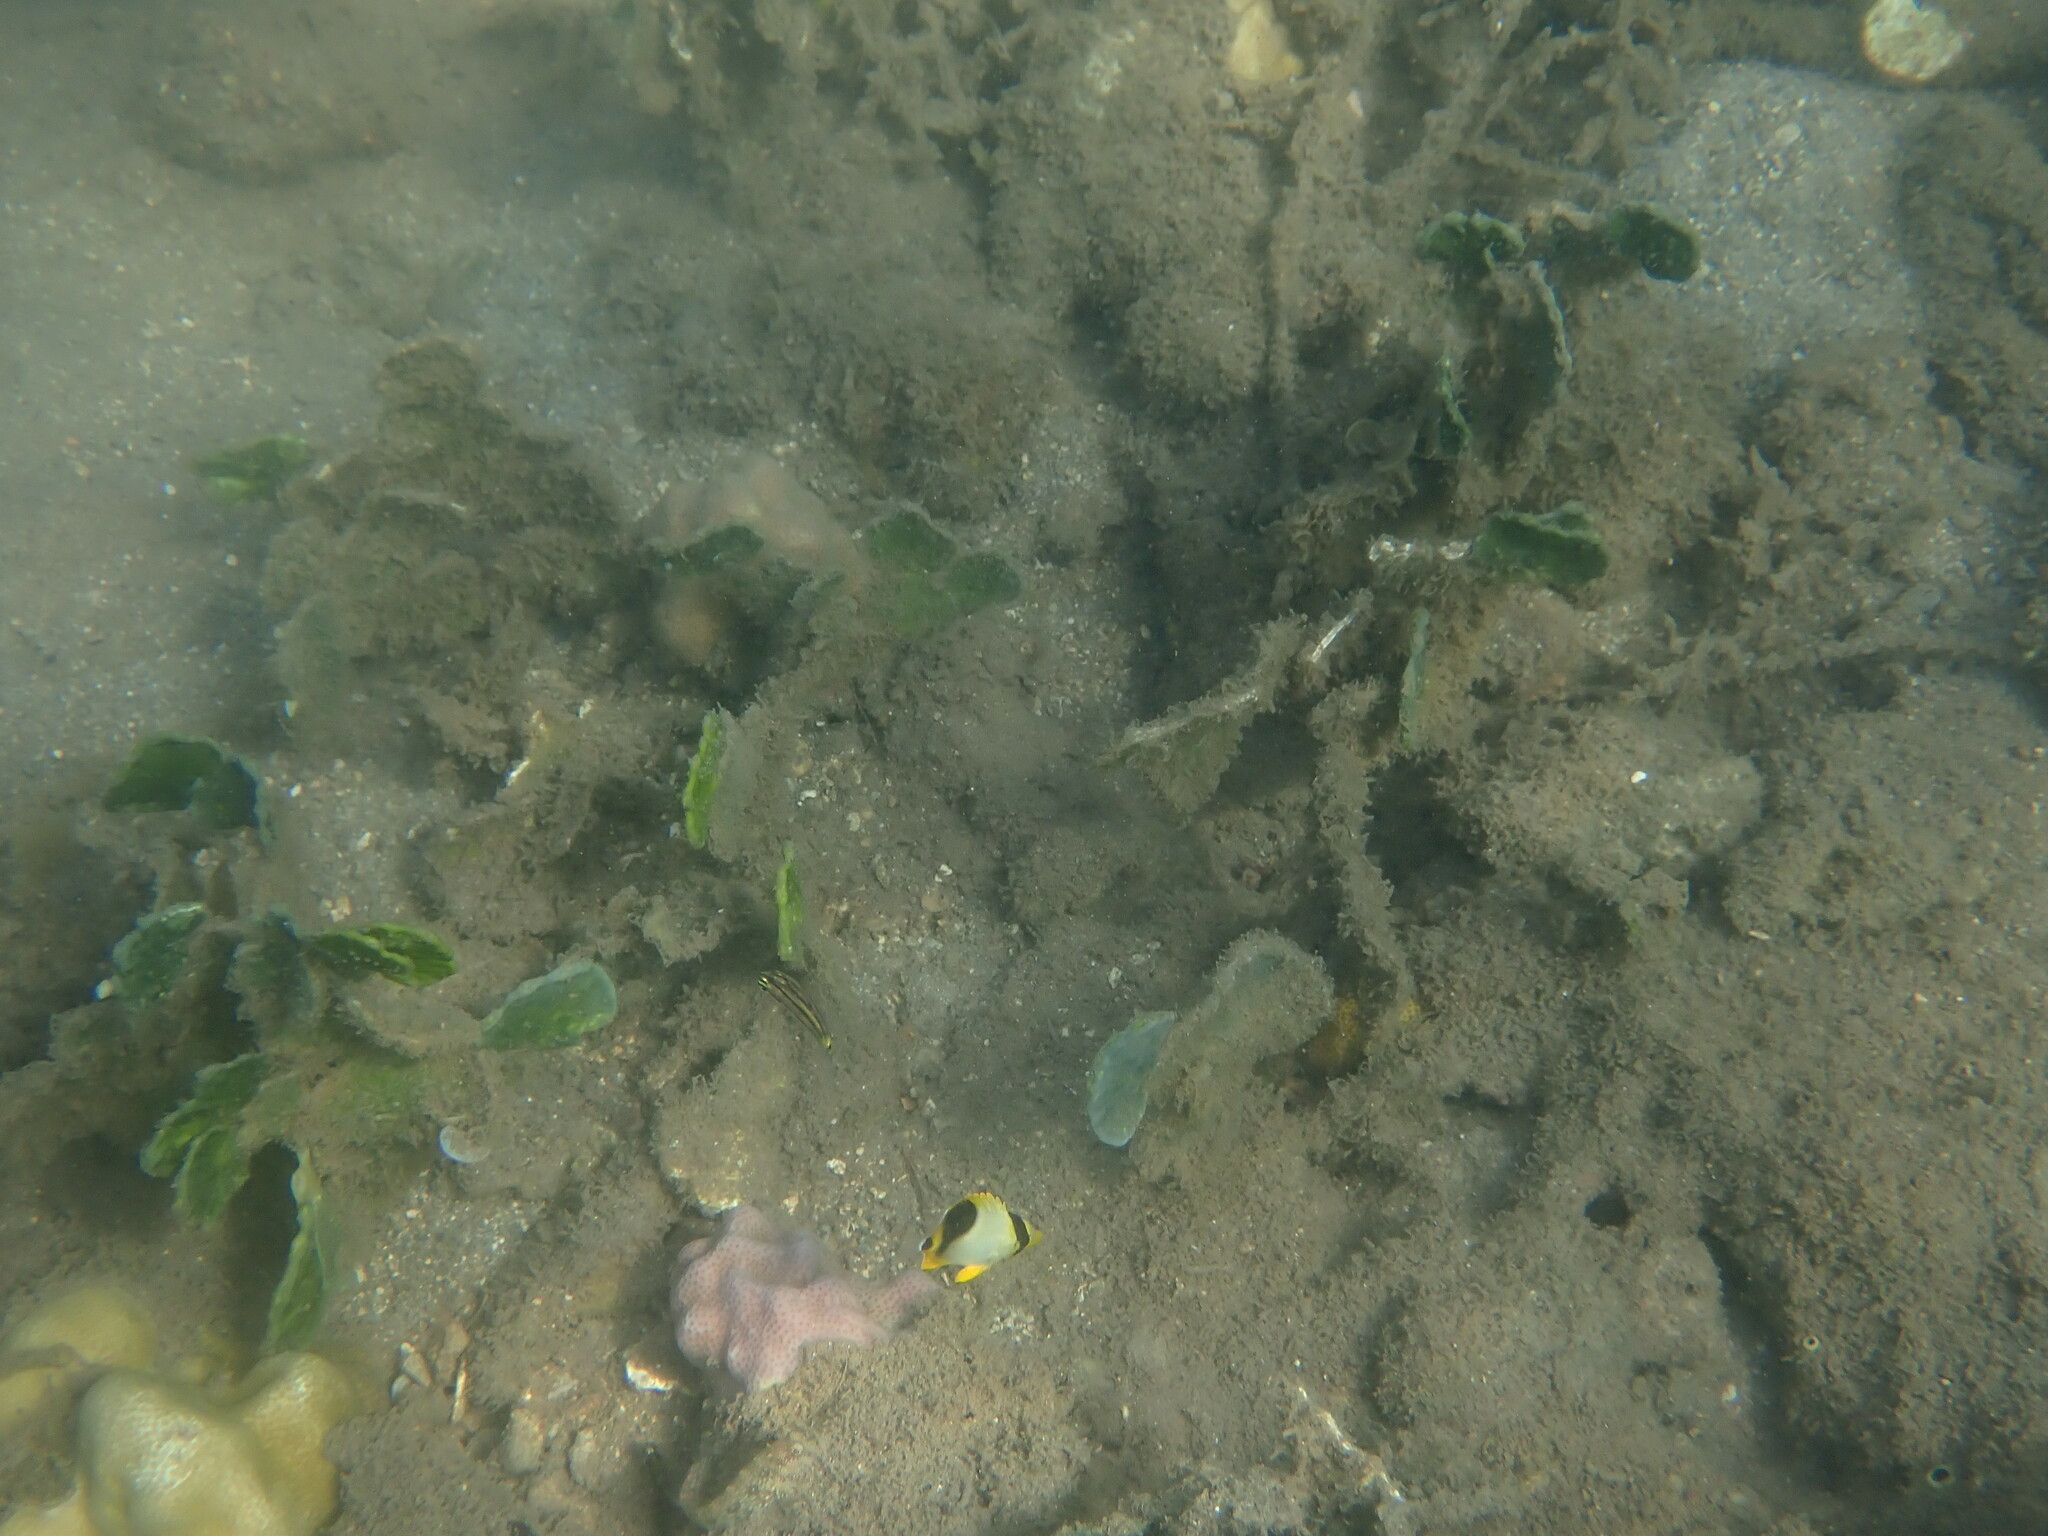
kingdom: Animalia
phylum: Chordata
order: Perciformes
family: Chaetodontidae
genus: Chaetodon
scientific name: Chaetodon ephippium
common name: Saddled butterflyfish
